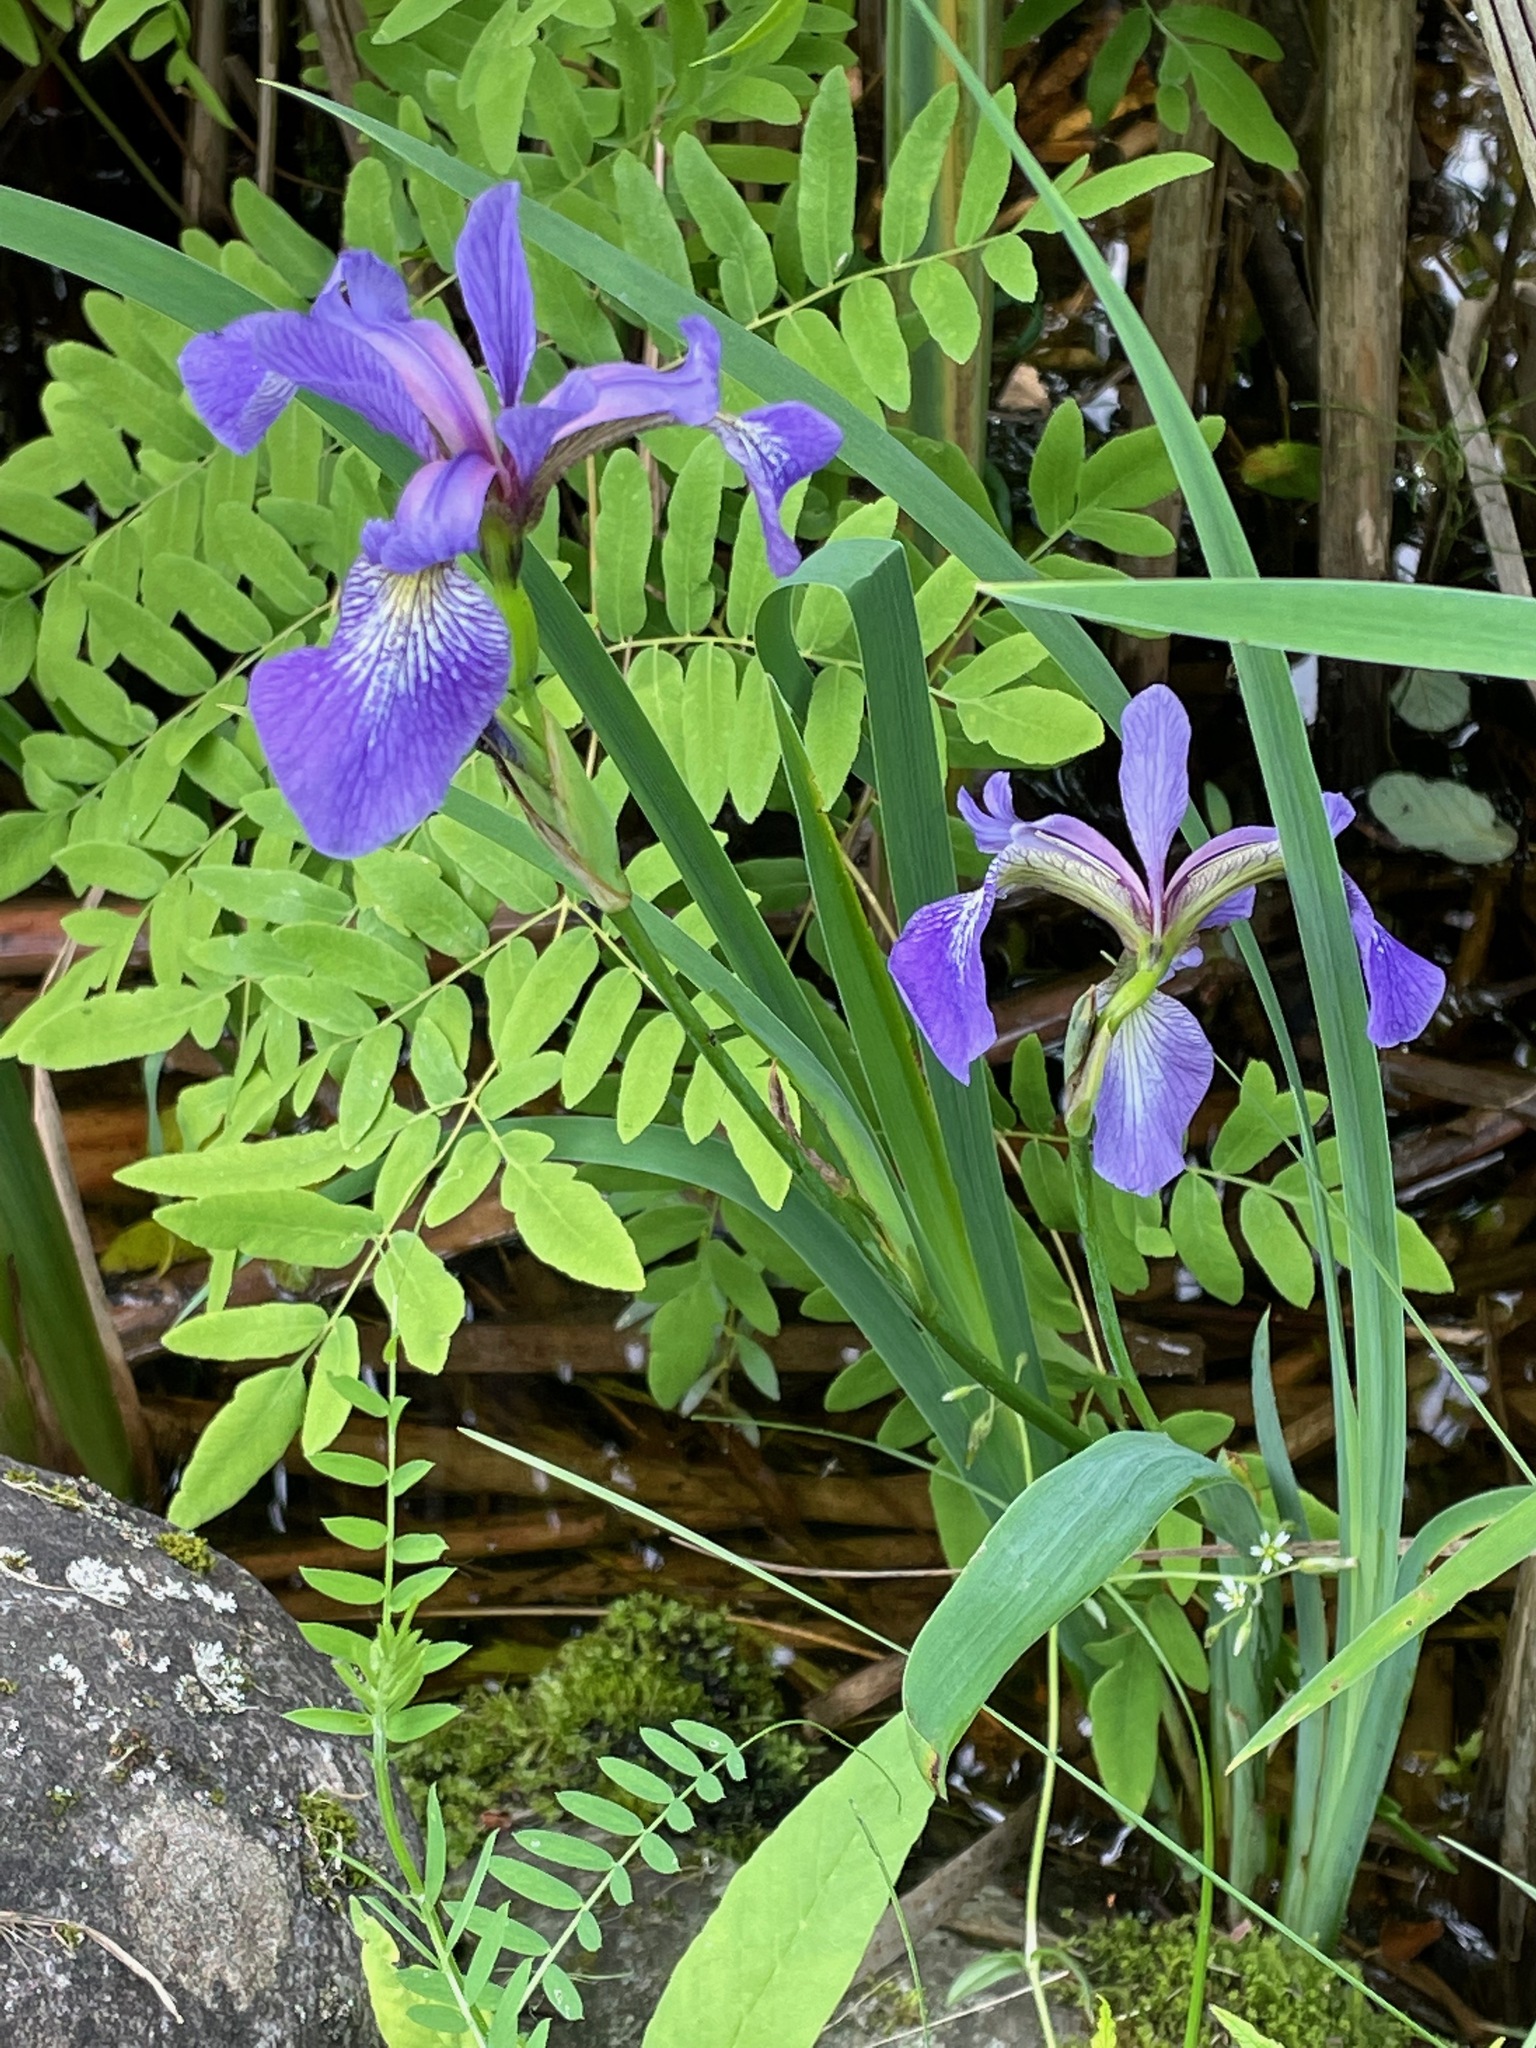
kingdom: Plantae
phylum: Tracheophyta
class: Liliopsida
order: Asparagales
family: Iridaceae
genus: Iris
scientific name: Iris versicolor
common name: Purple iris
